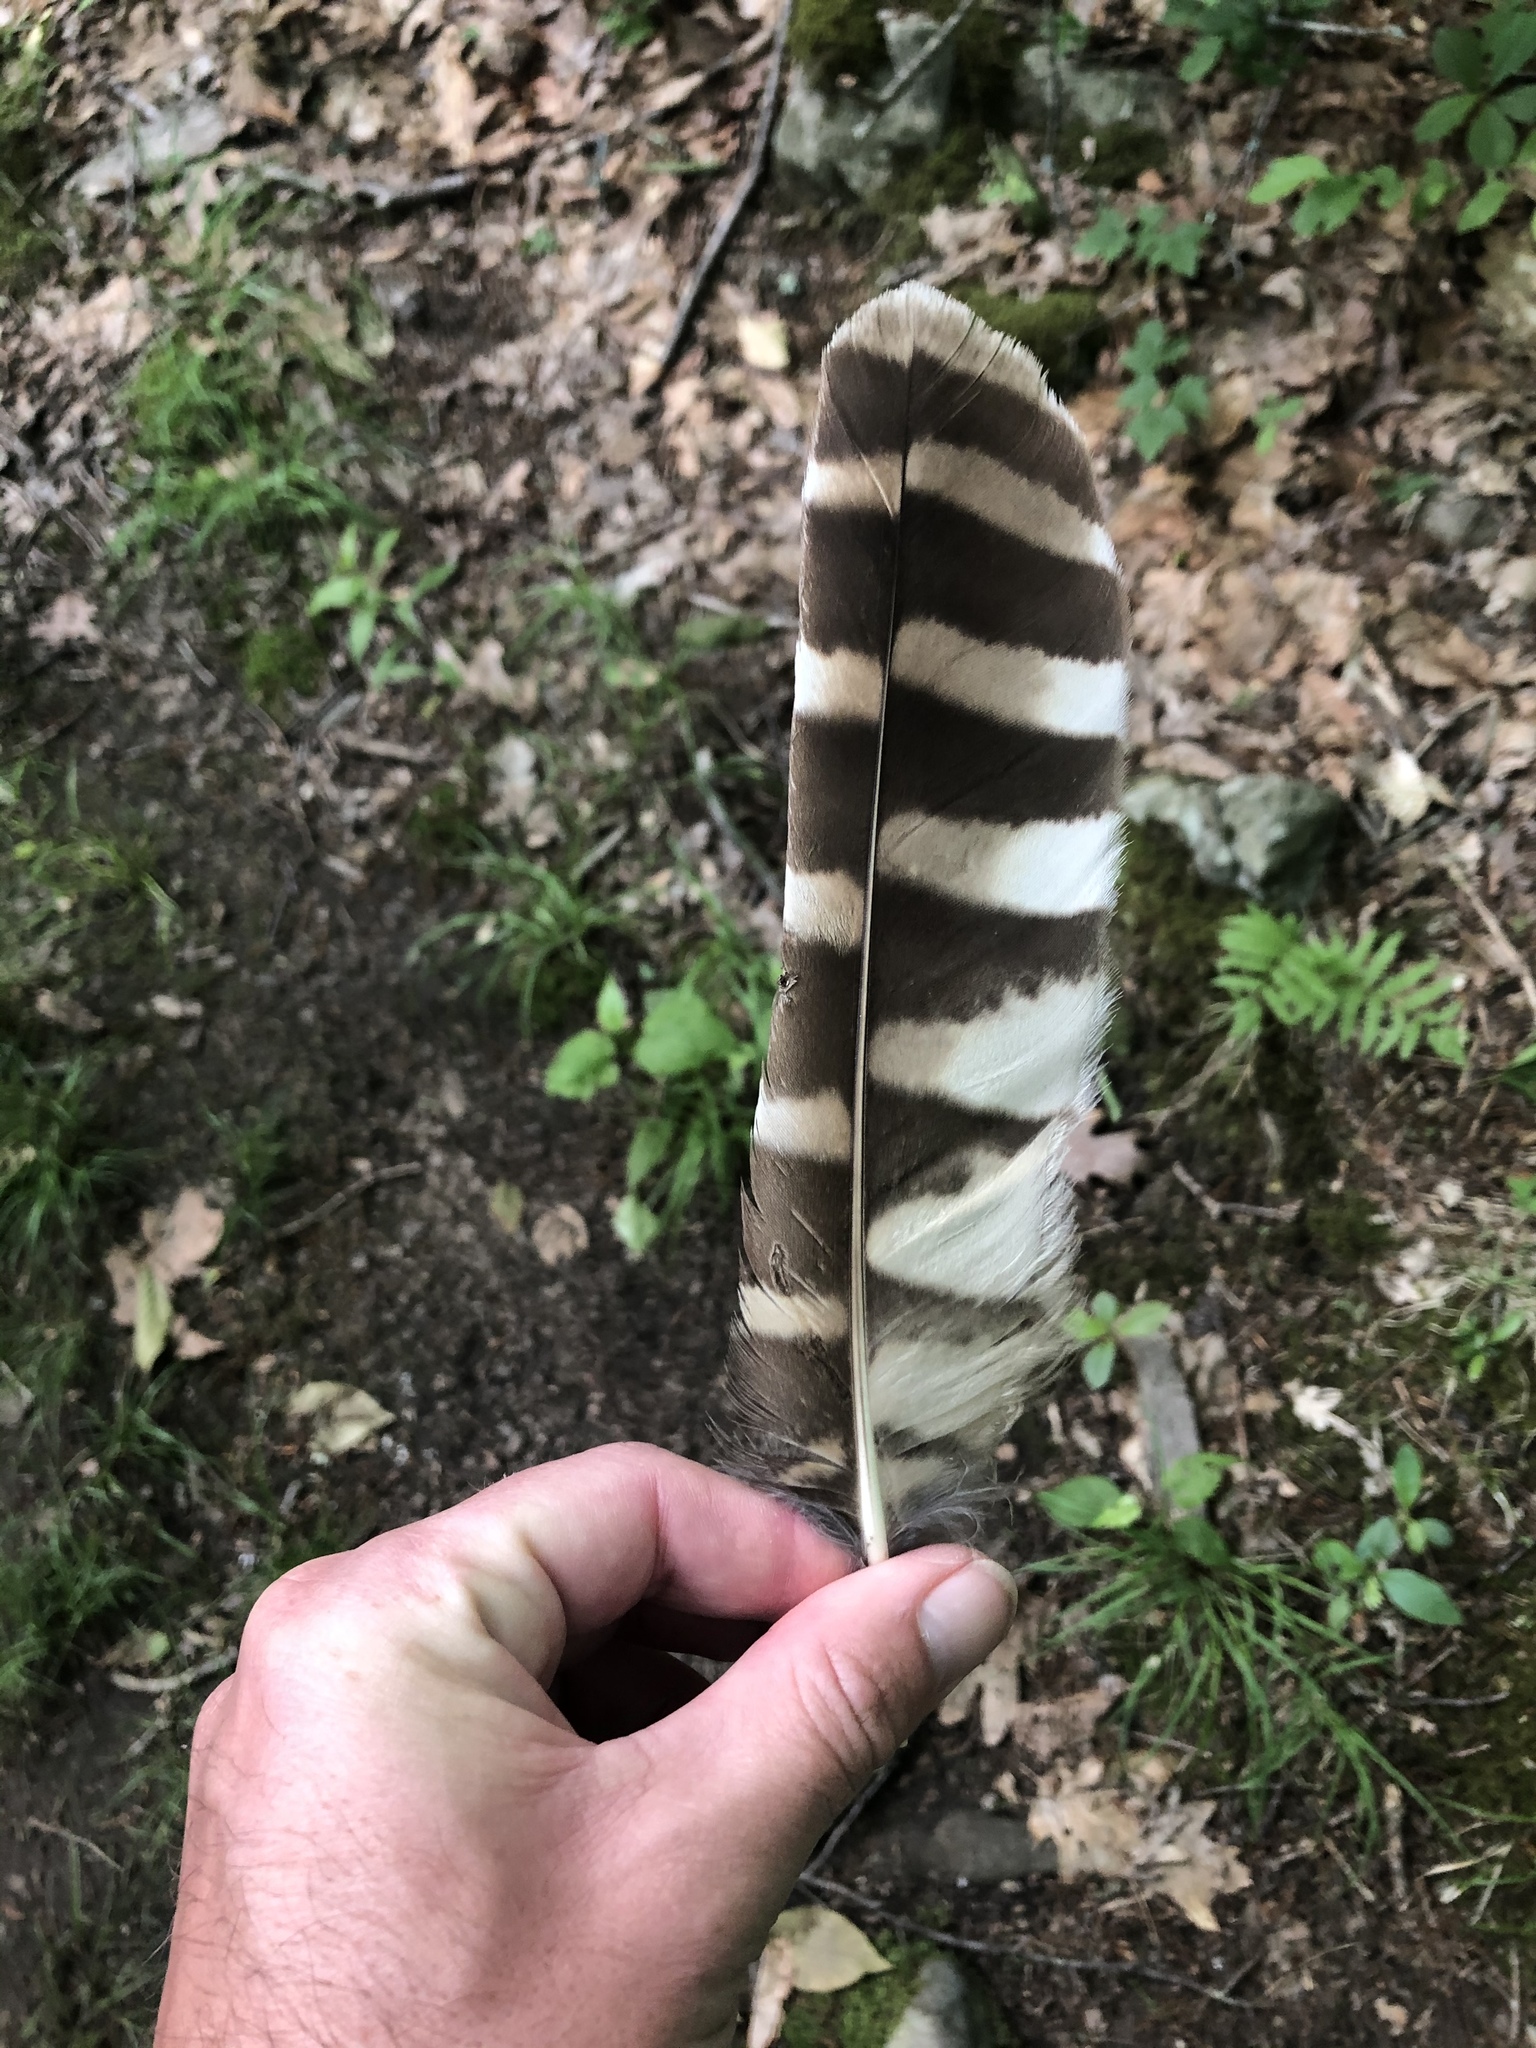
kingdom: Animalia
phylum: Chordata
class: Aves
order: Strigiformes
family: Strigidae
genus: Strix
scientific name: Strix varia
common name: Barred owl
